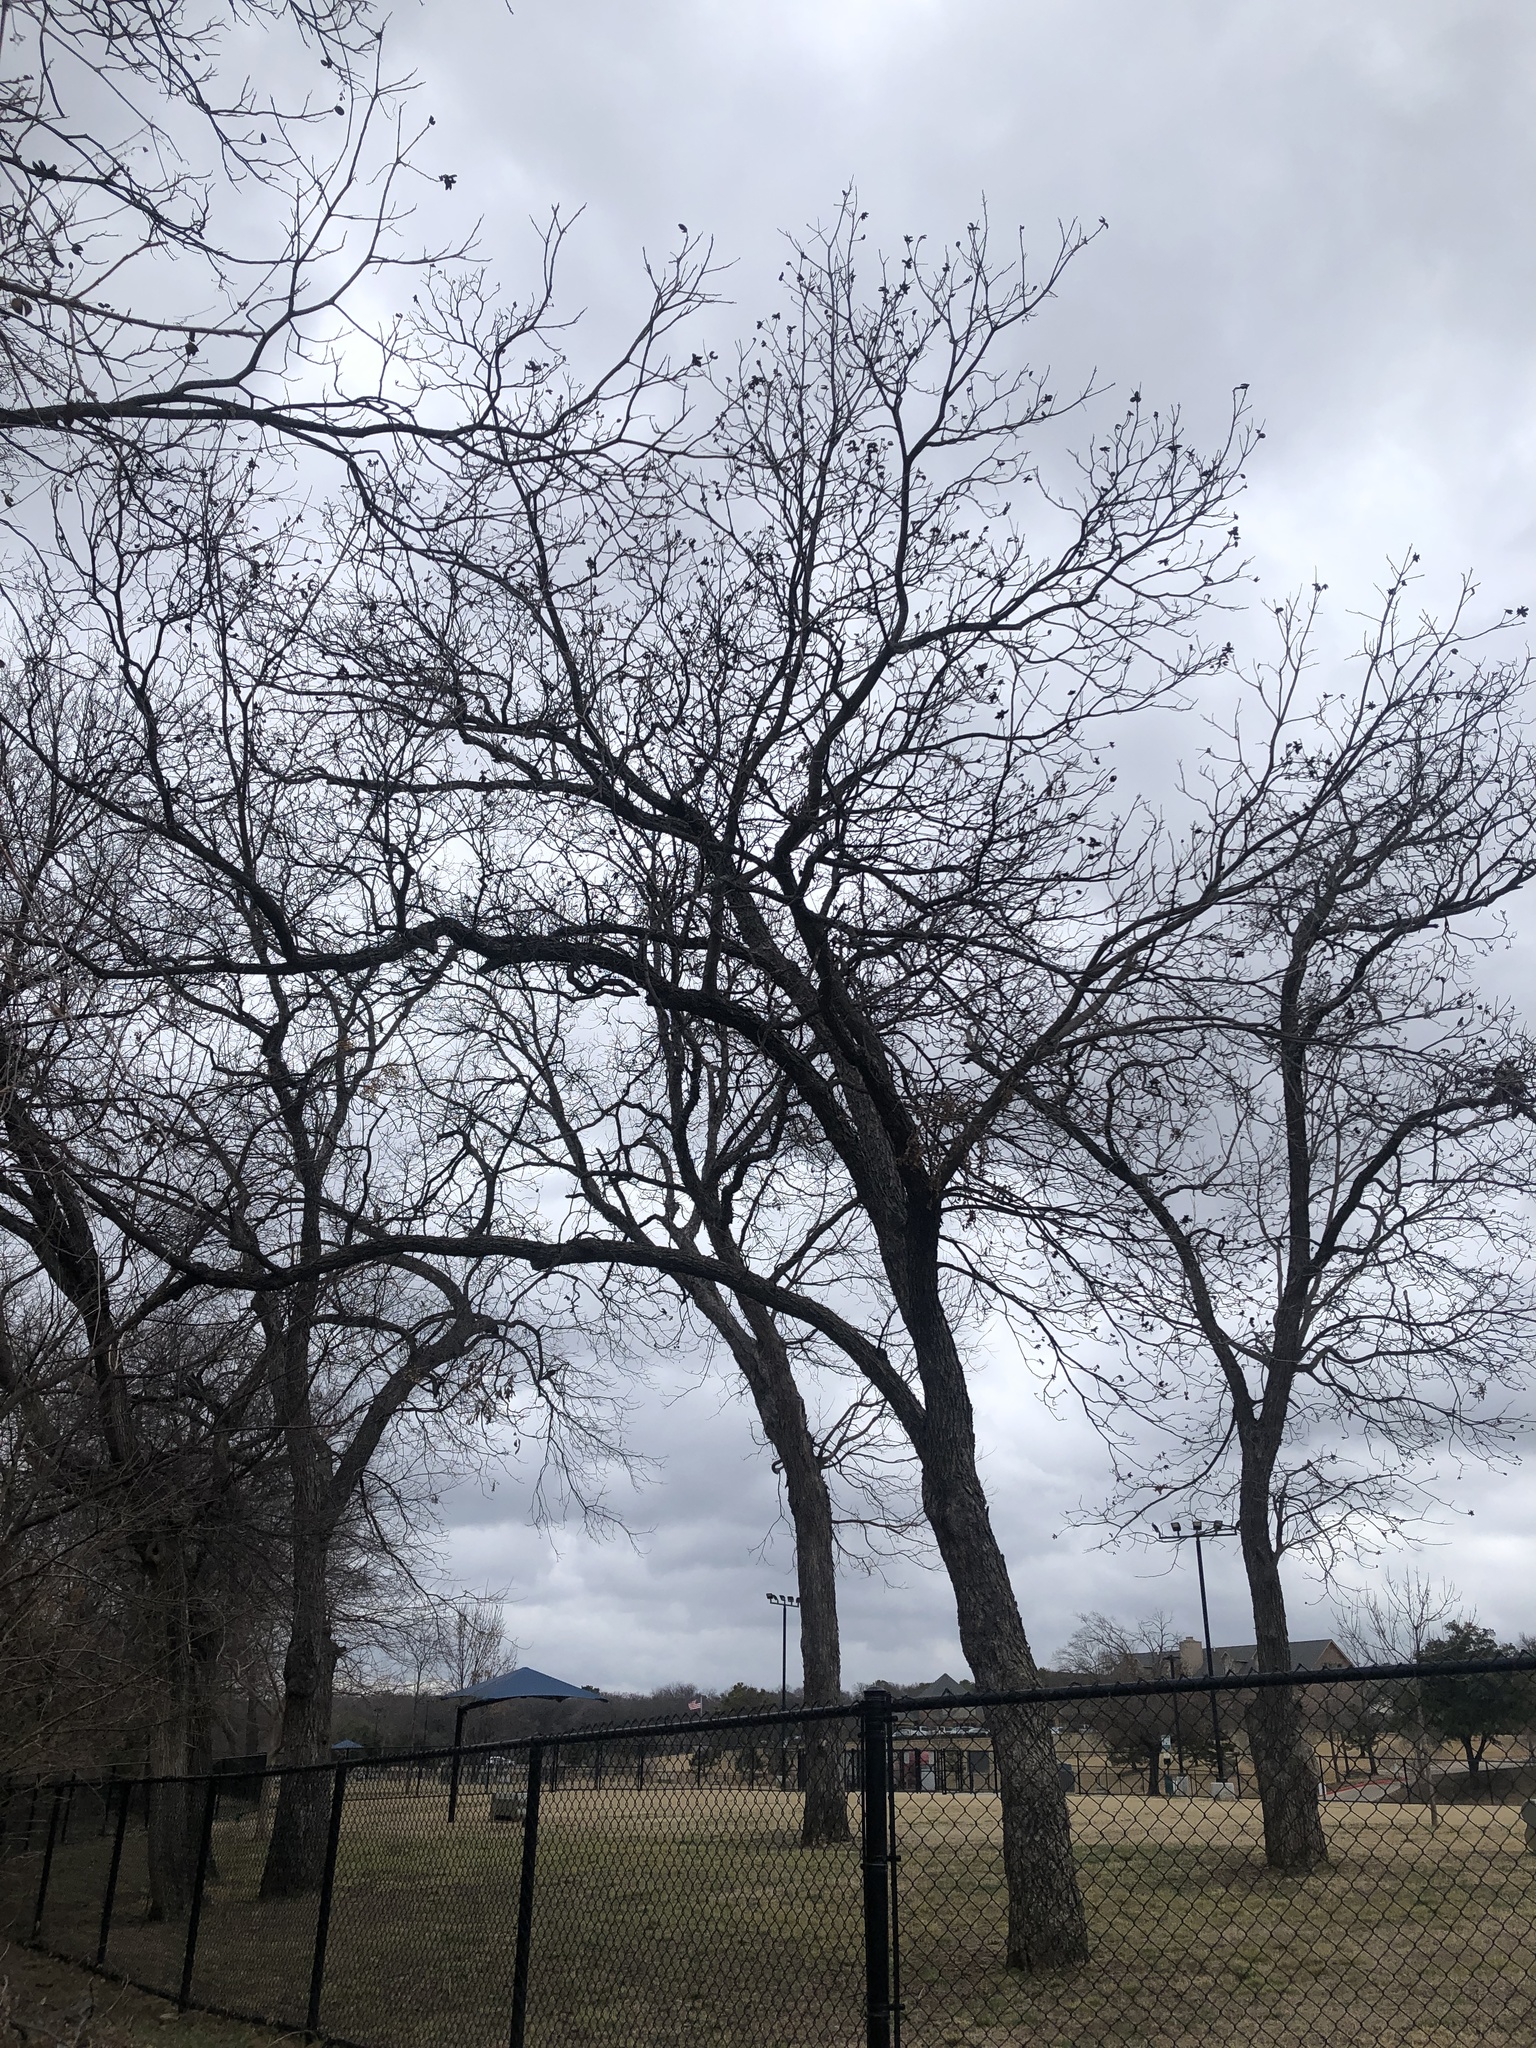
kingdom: Plantae
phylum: Tracheophyta
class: Magnoliopsida
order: Fagales
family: Juglandaceae
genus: Carya
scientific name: Carya illinoinensis
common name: Pecan
